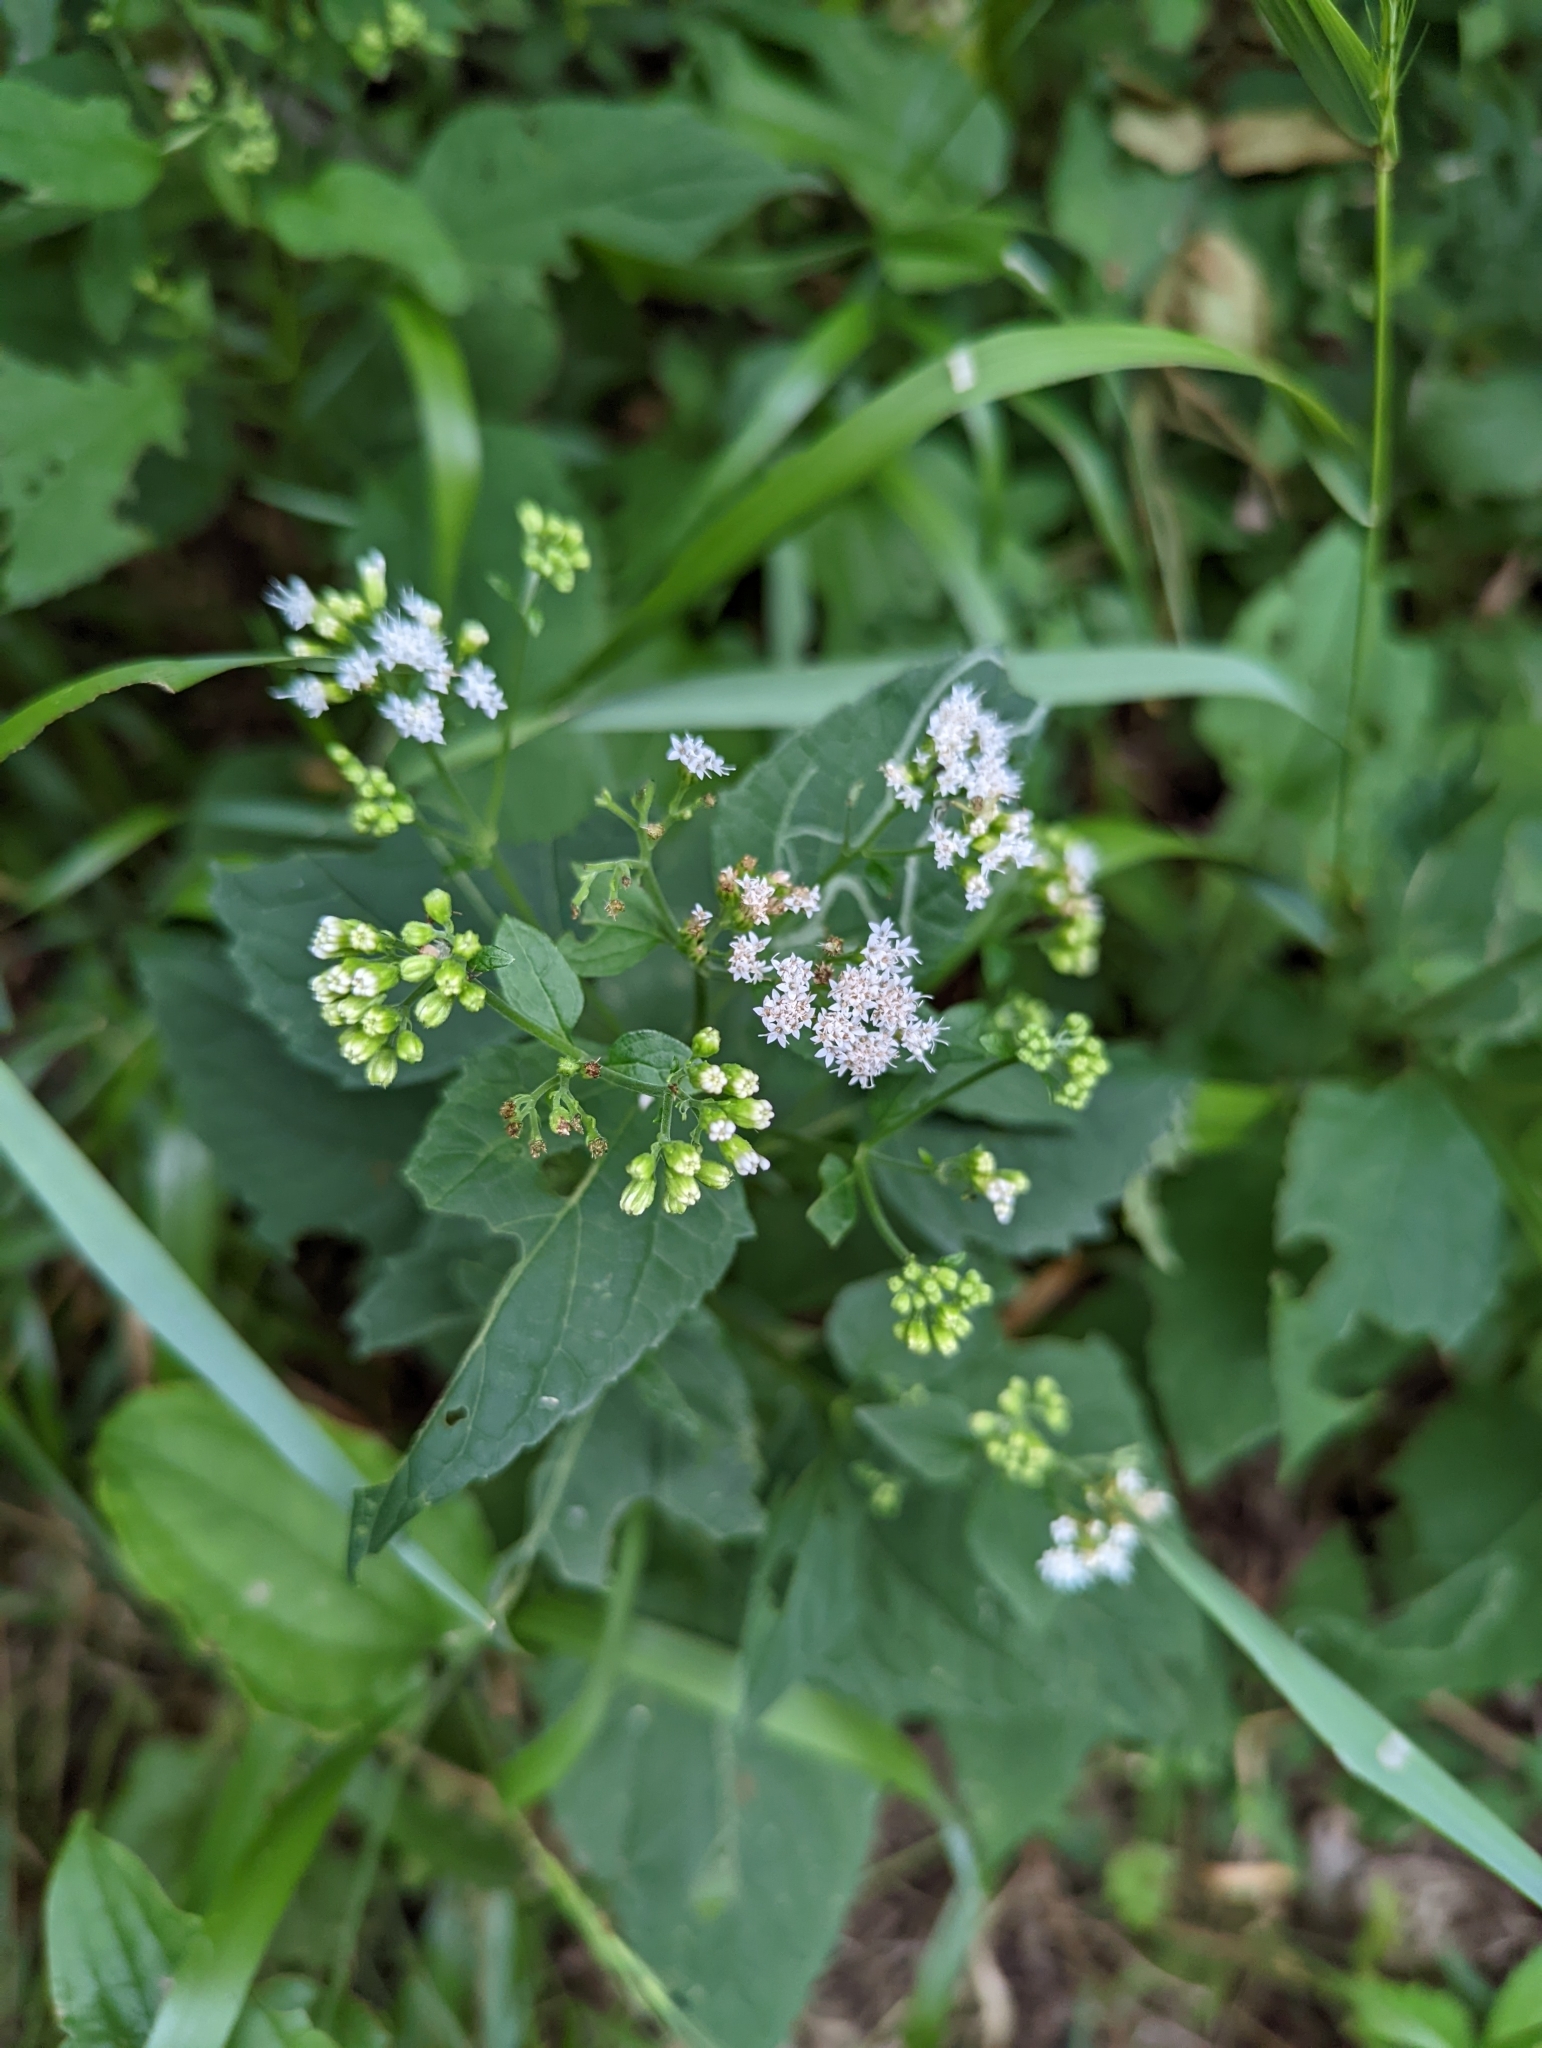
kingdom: Plantae
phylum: Tracheophyta
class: Magnoliopsida
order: Asterales
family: Asteraceae
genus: Ageratina
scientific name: Ageratina altissima
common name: White snakeroot
